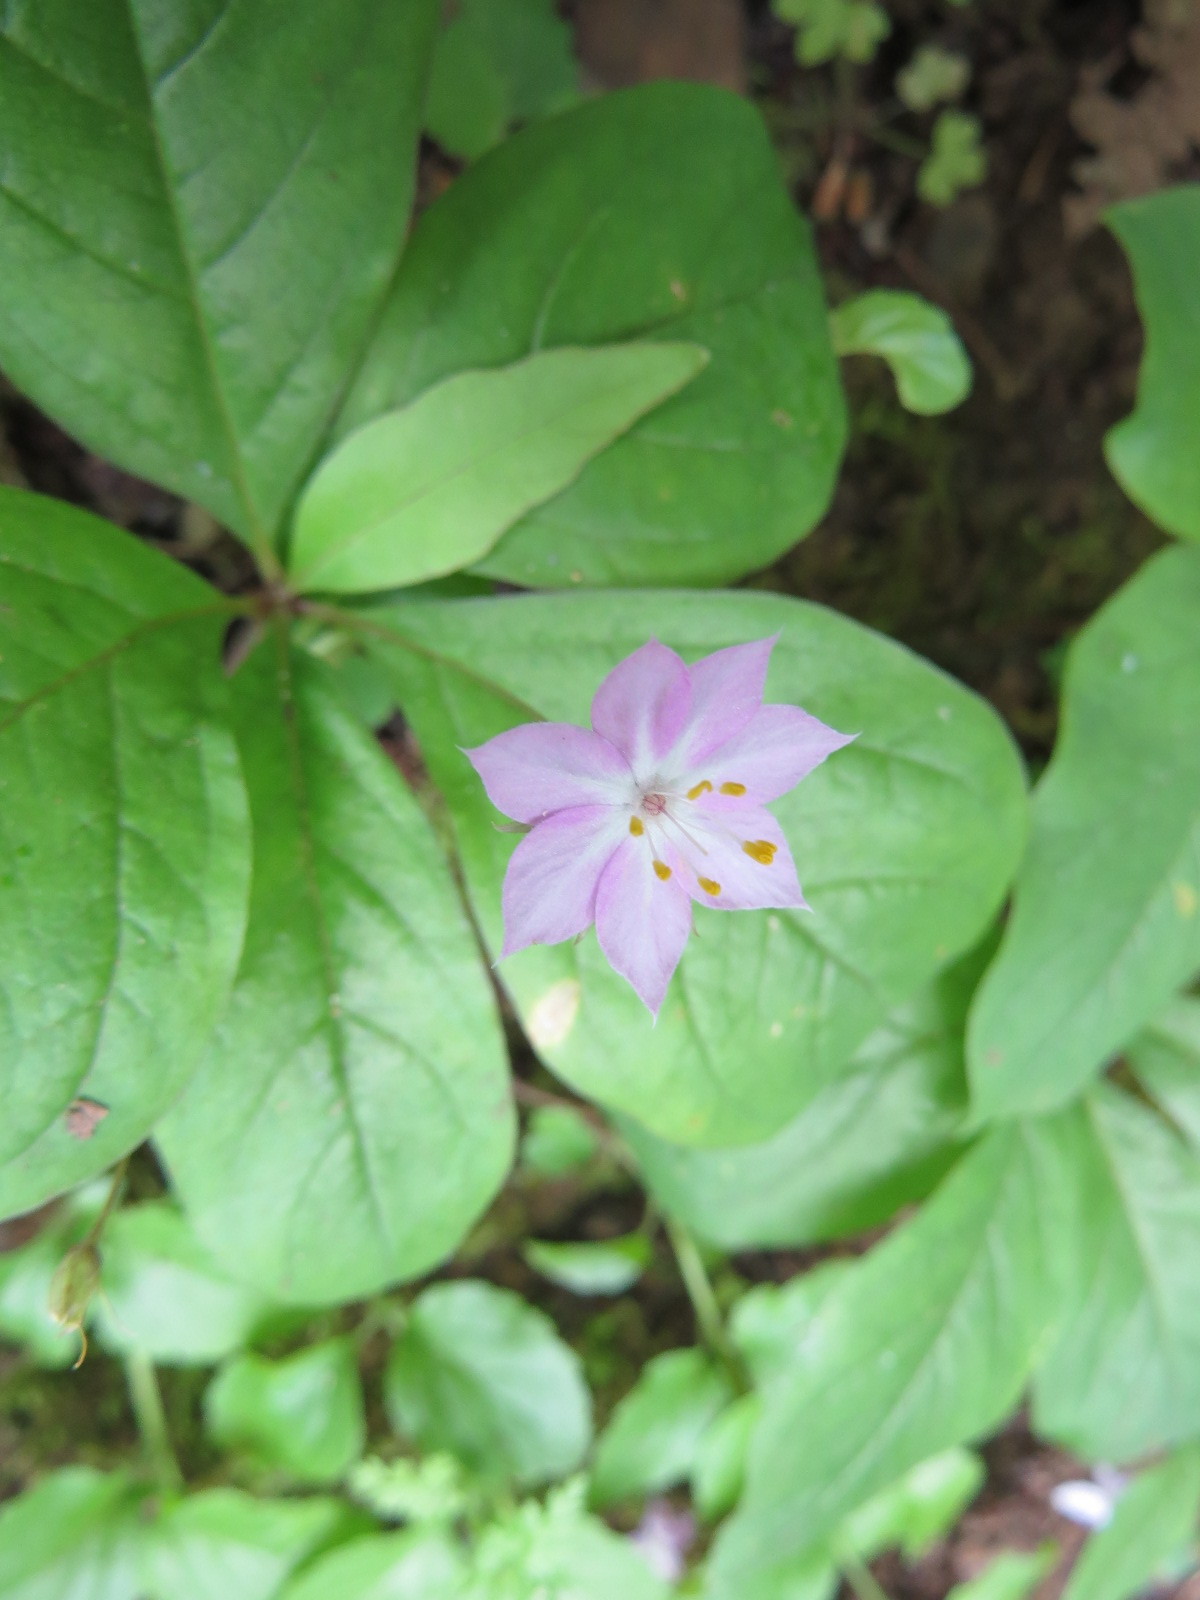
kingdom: Plantae
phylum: Tracheophyta
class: Magnoliopsida
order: Ericales
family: Primulaceae
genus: Lysimachia
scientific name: Lysimachia latifolia
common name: Pacific starflower
